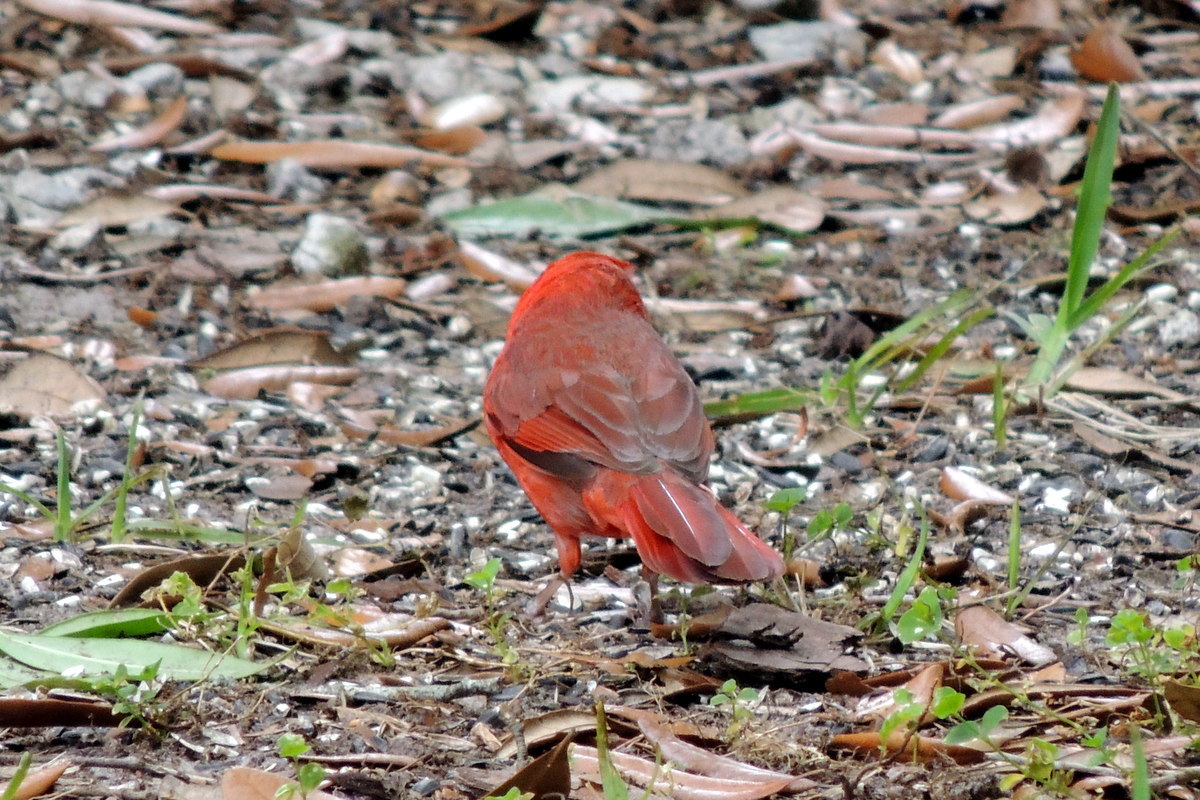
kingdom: Animalia
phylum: Chordata
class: Aves
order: Passeriformes
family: Cardinalidae
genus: Cardinalis
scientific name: Cardinalis cardinalis
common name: Northern cardinal
